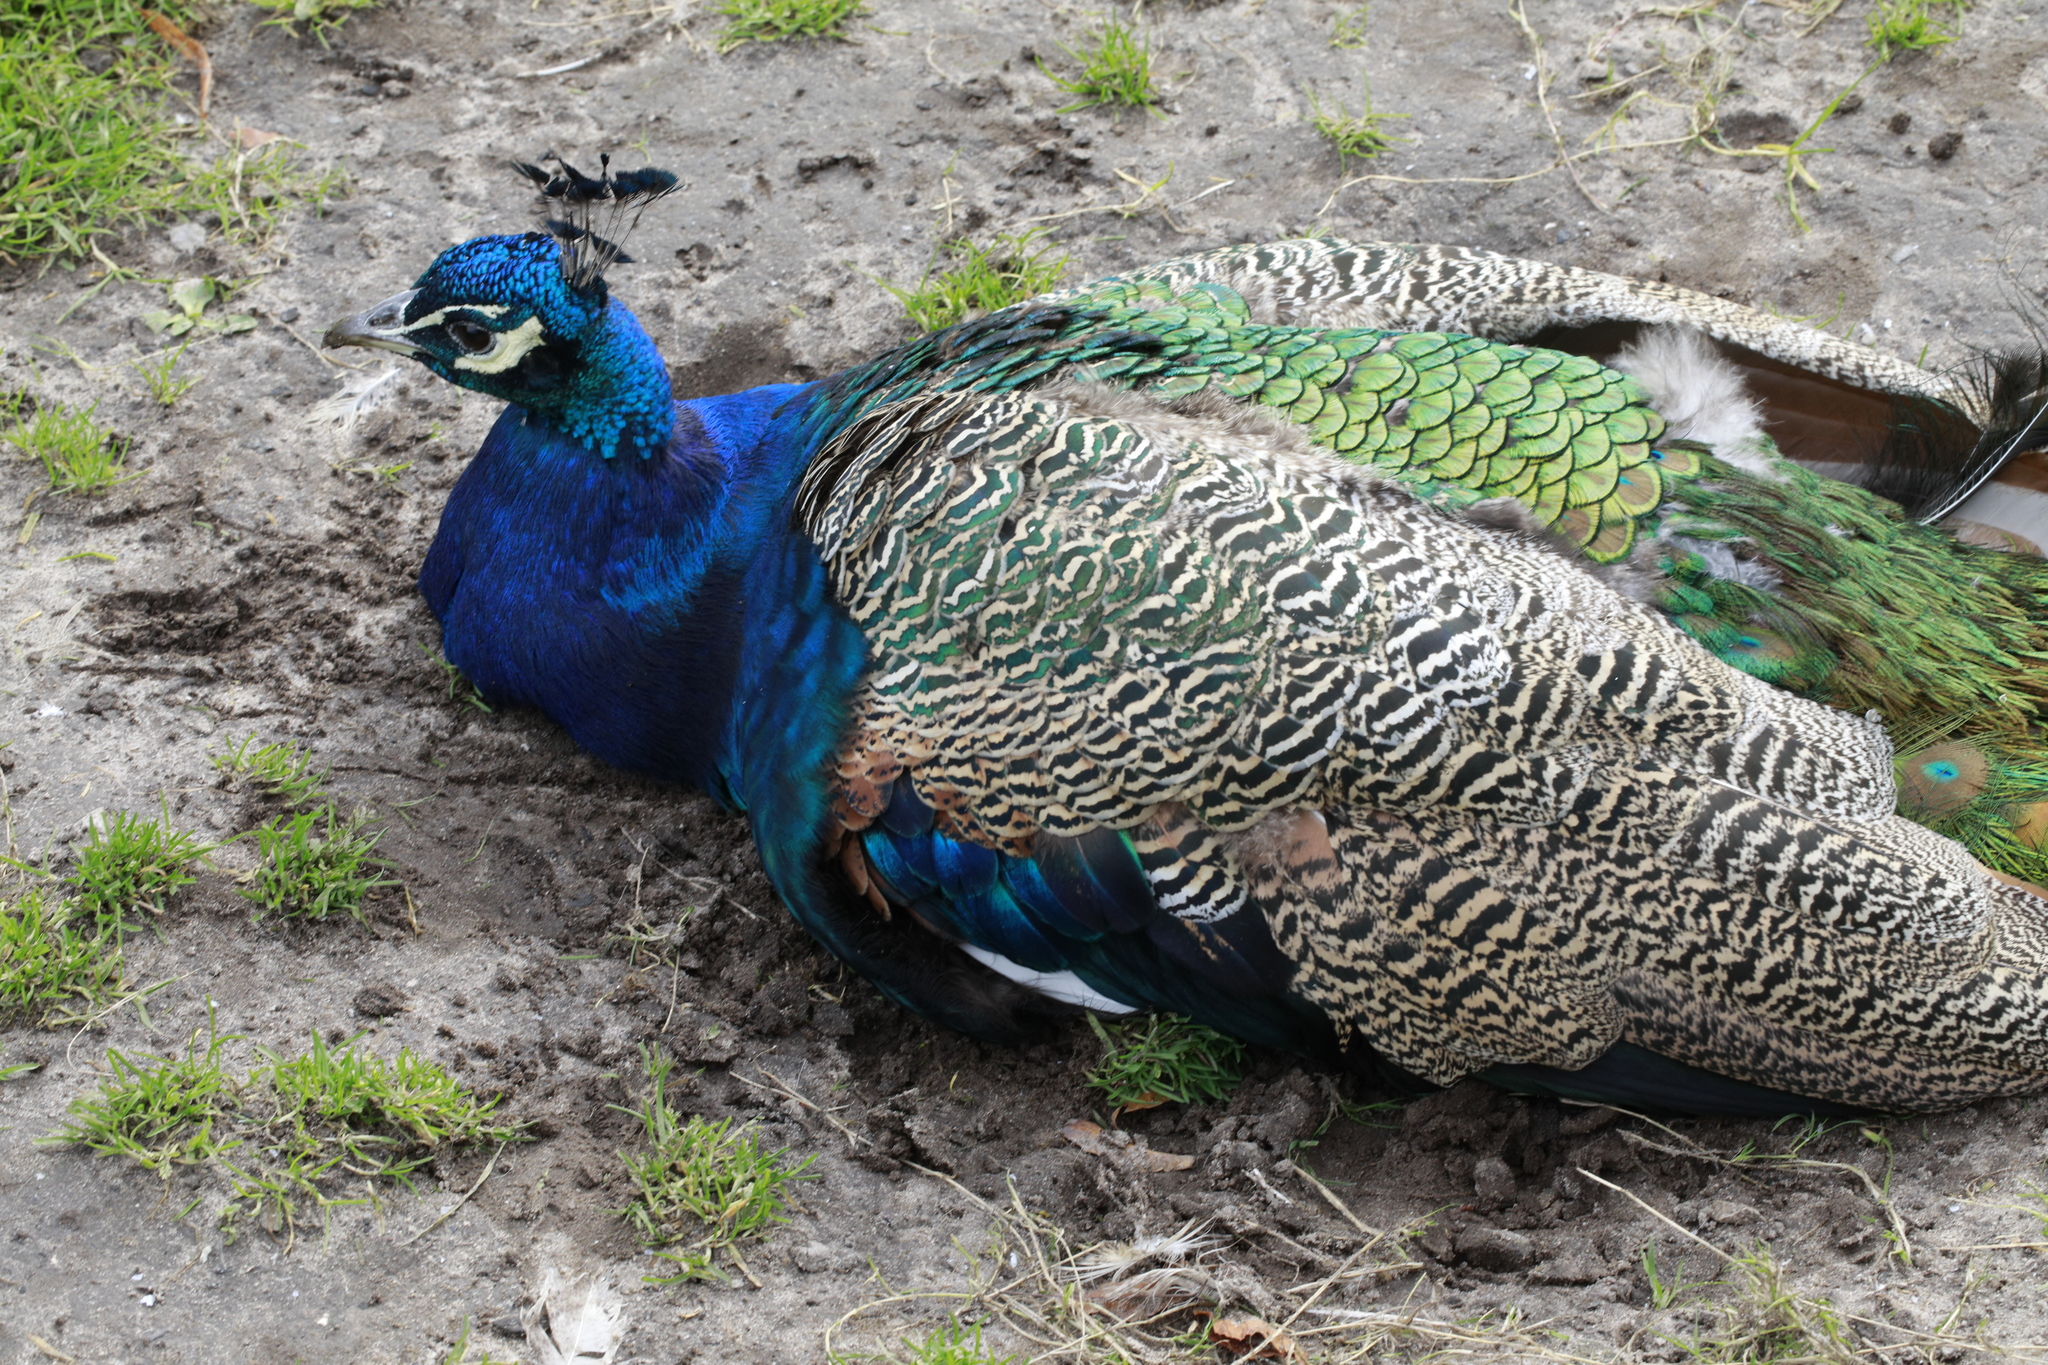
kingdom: Animalia
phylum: Chordata
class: Aves
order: Galliformes
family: Phasianidae
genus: Pavo
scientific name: Pavo cristatus
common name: Indian peafowl
